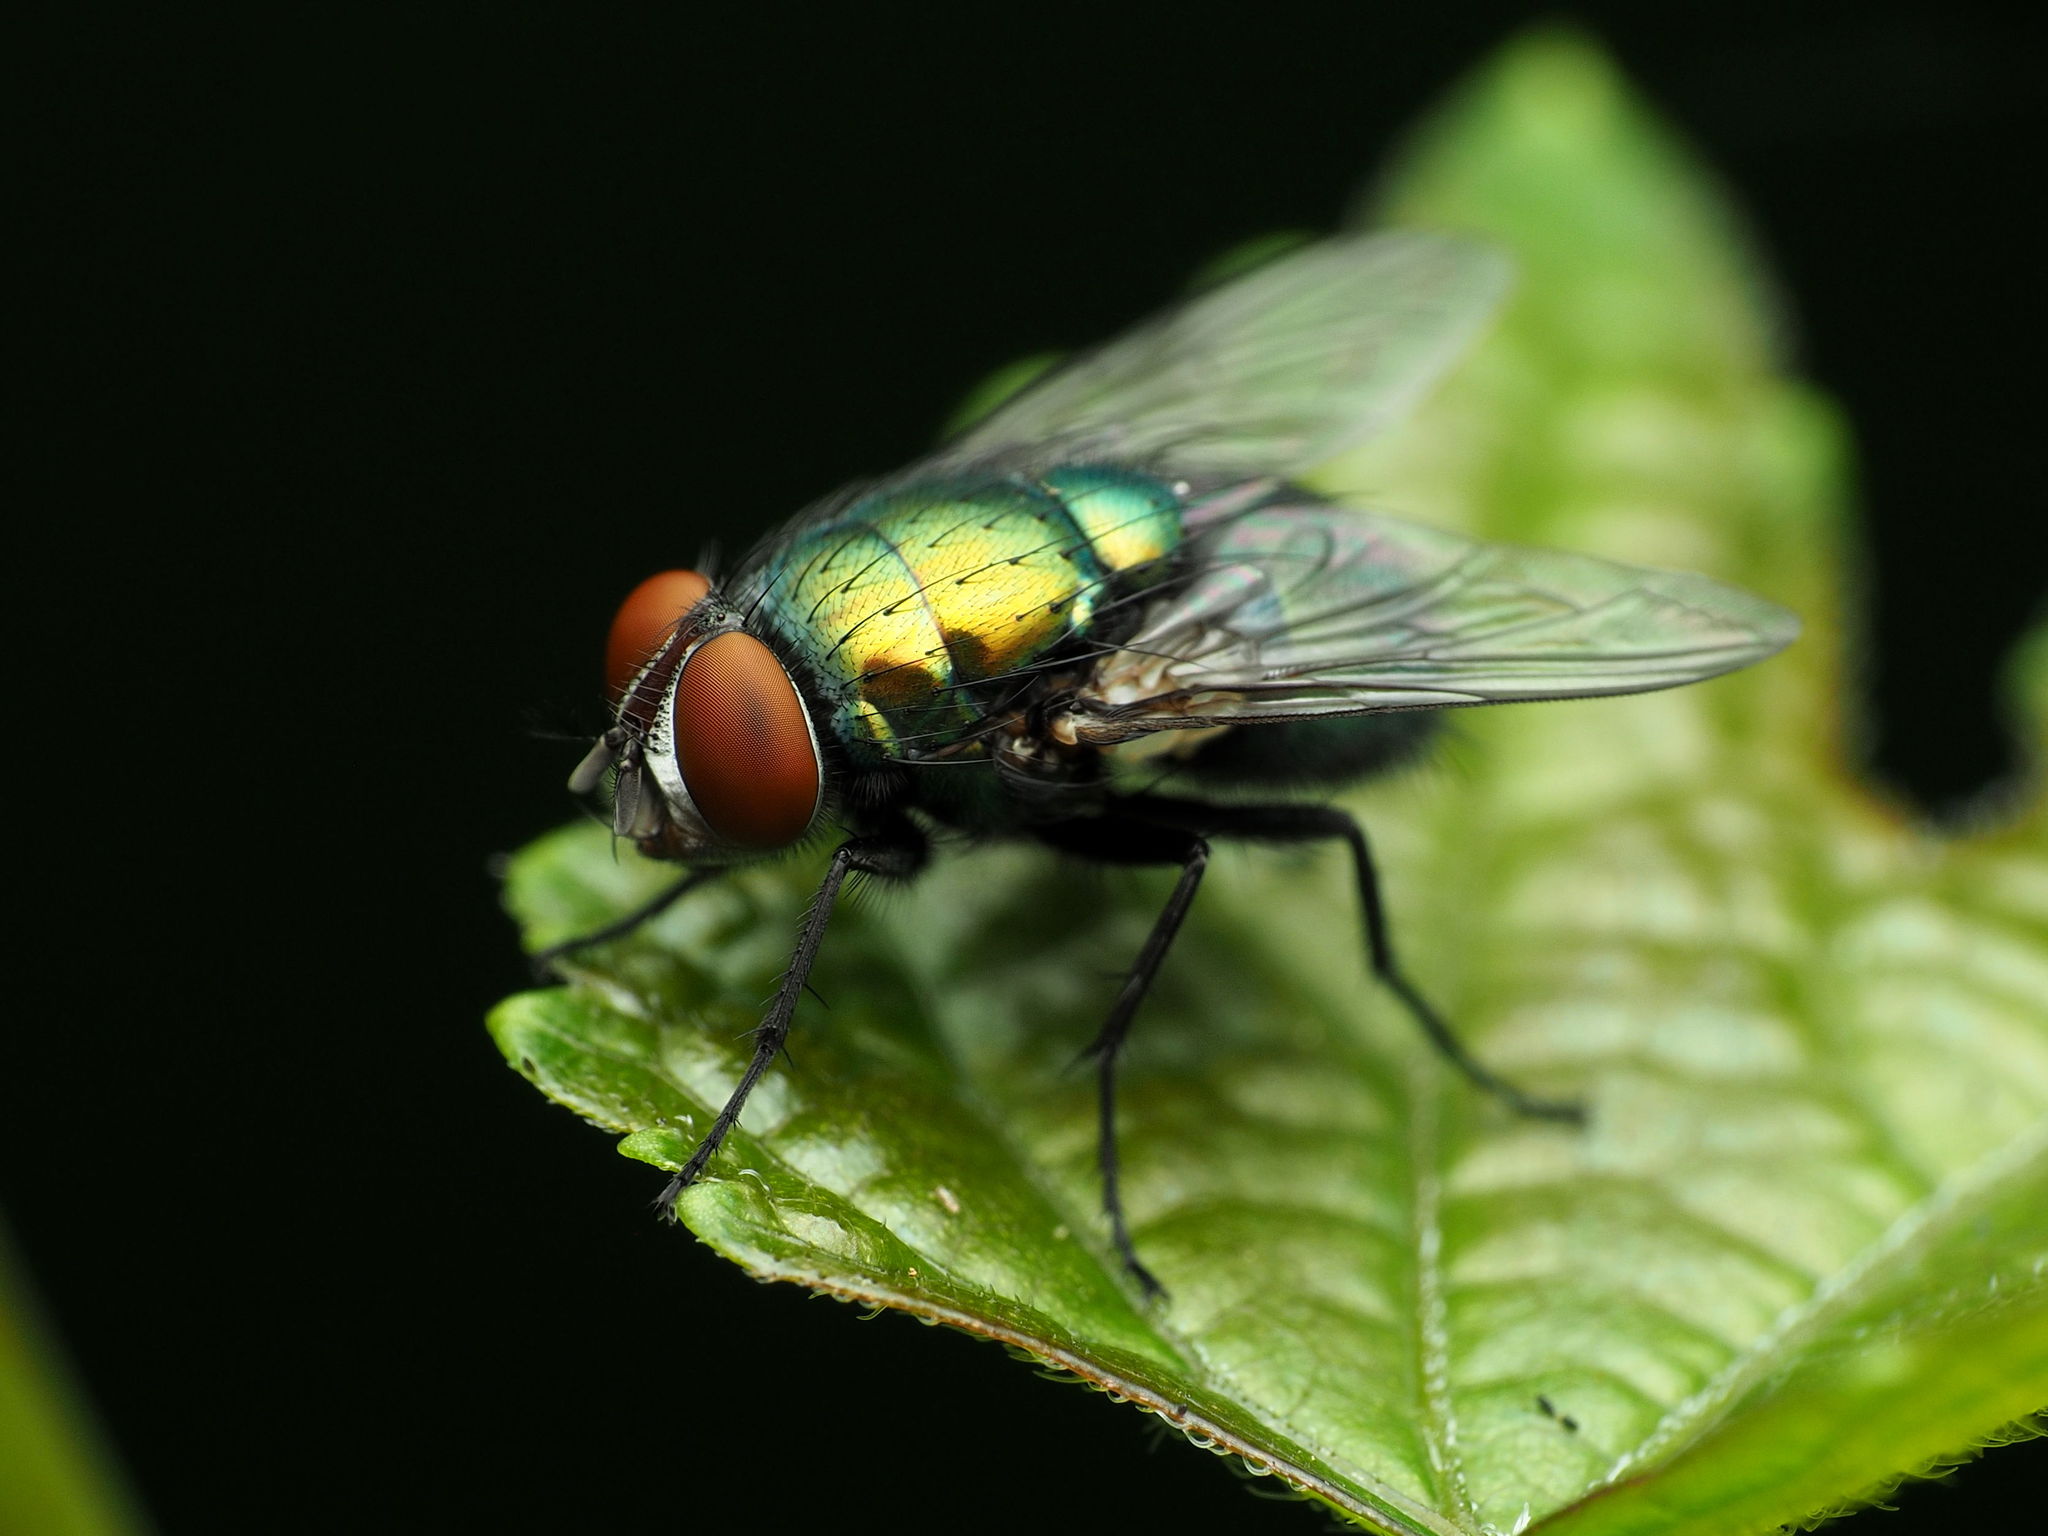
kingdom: Animalia
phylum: Arthropoda
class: Insecta
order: Diptera
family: Calliphoridae
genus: Lucilia
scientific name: Lucilia sericata
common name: Blow fly
